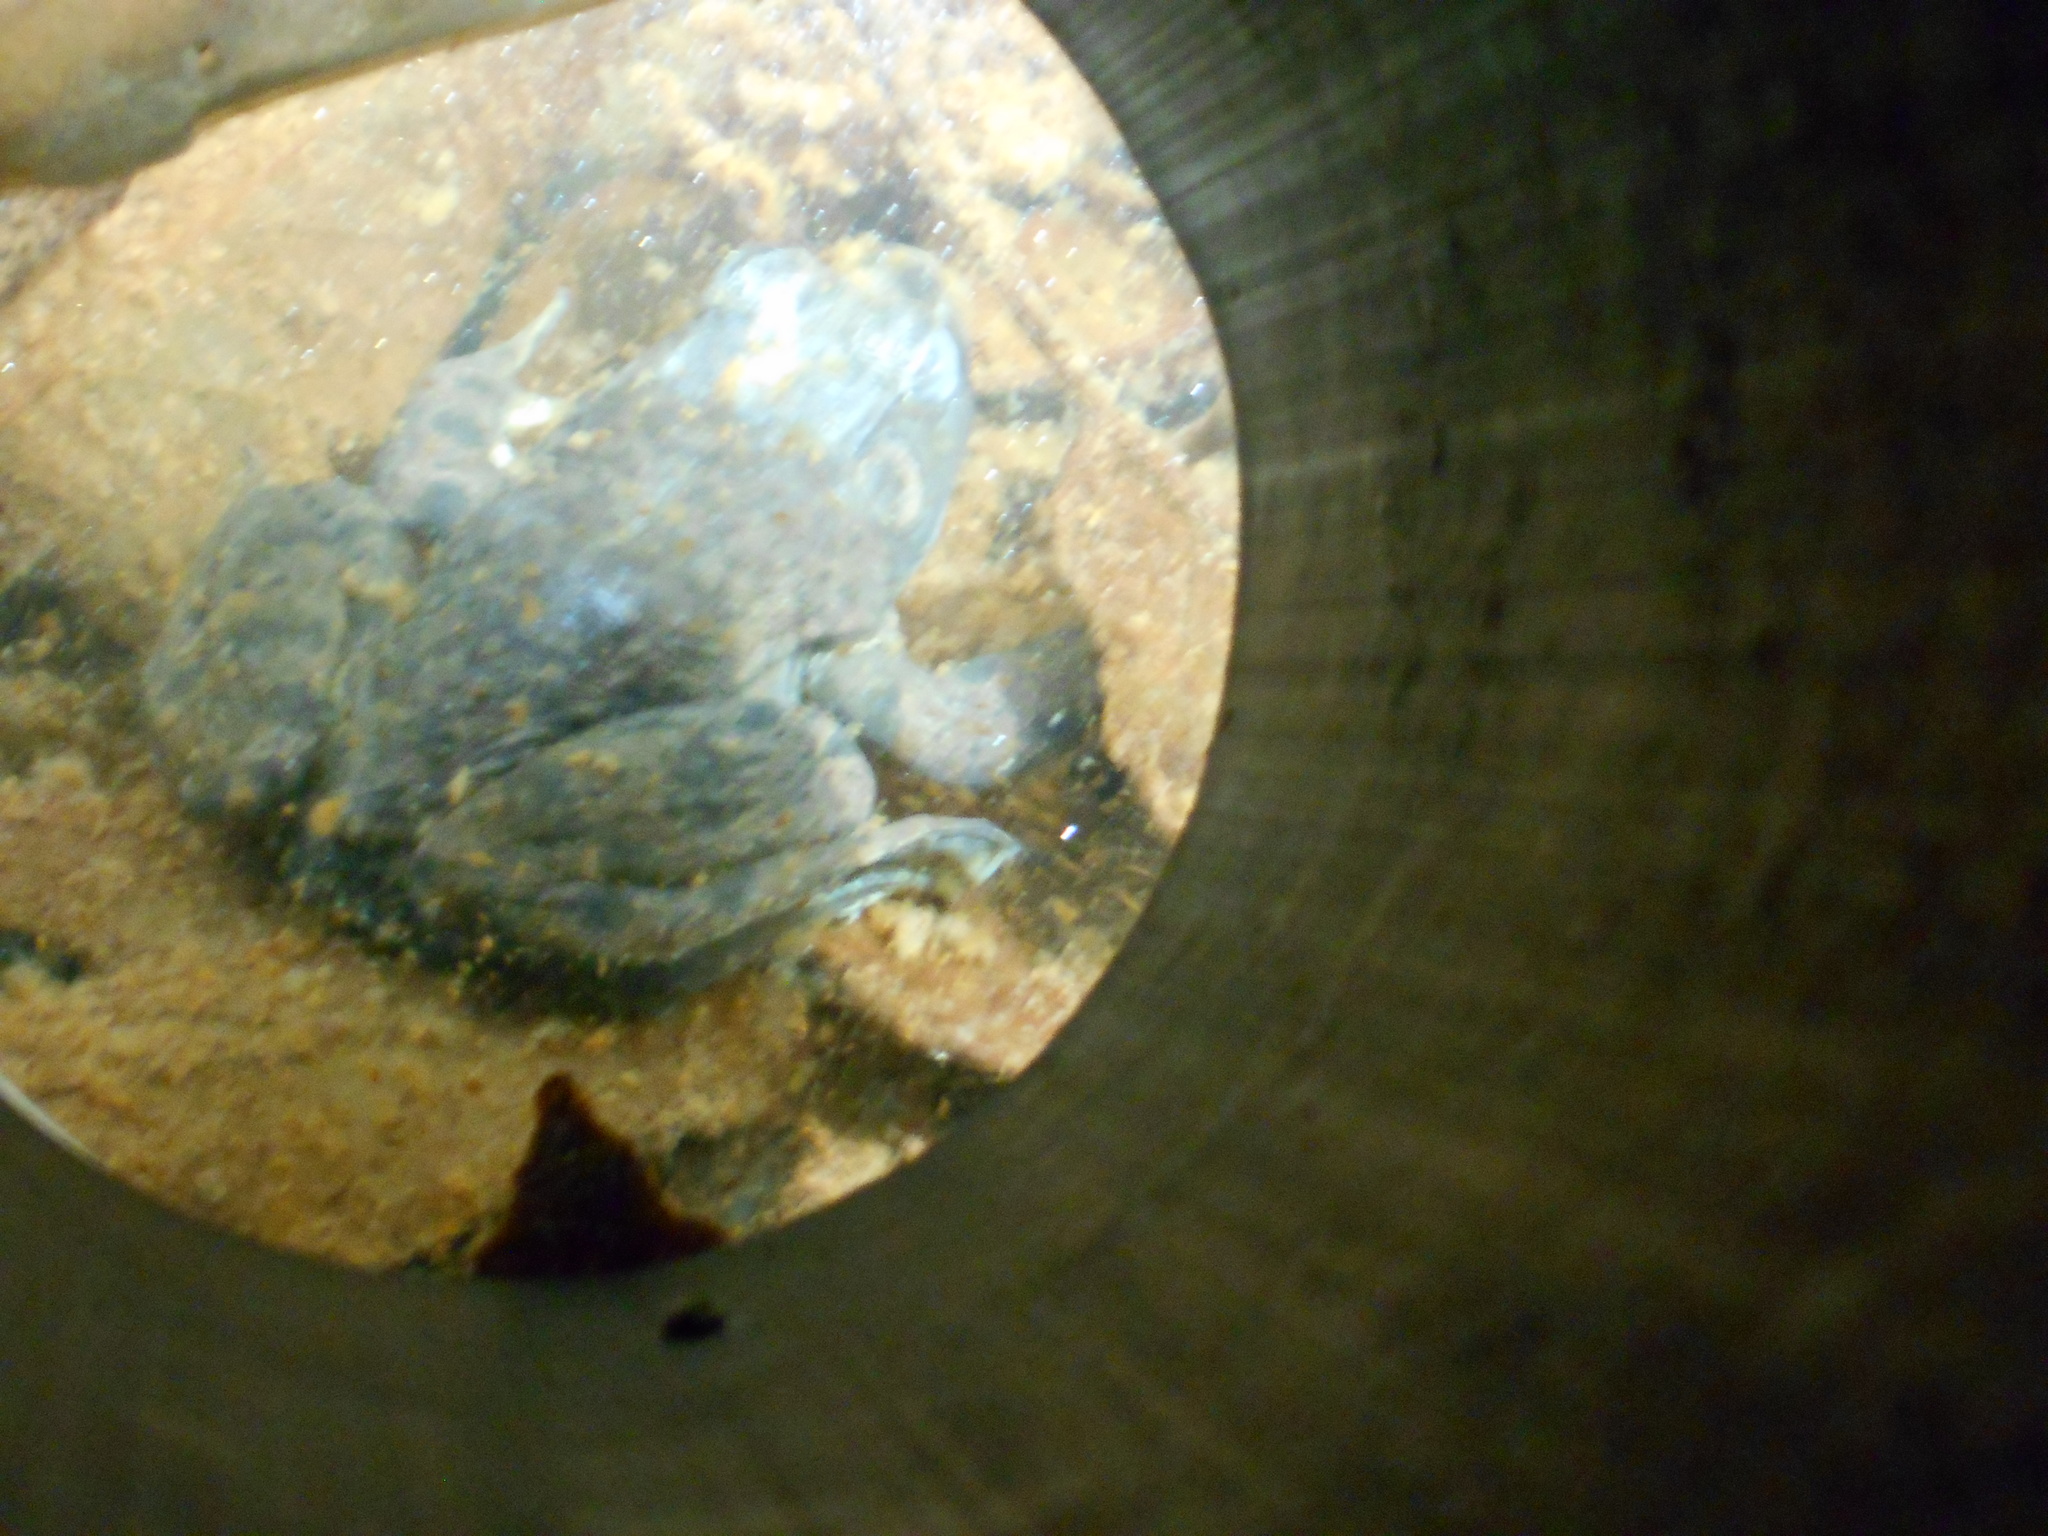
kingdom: Animalia
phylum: Chordata
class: Amphibia
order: Anura
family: Ranidae
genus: Lithobates
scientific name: Lithobates catesbeianus
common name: American bullfrog
